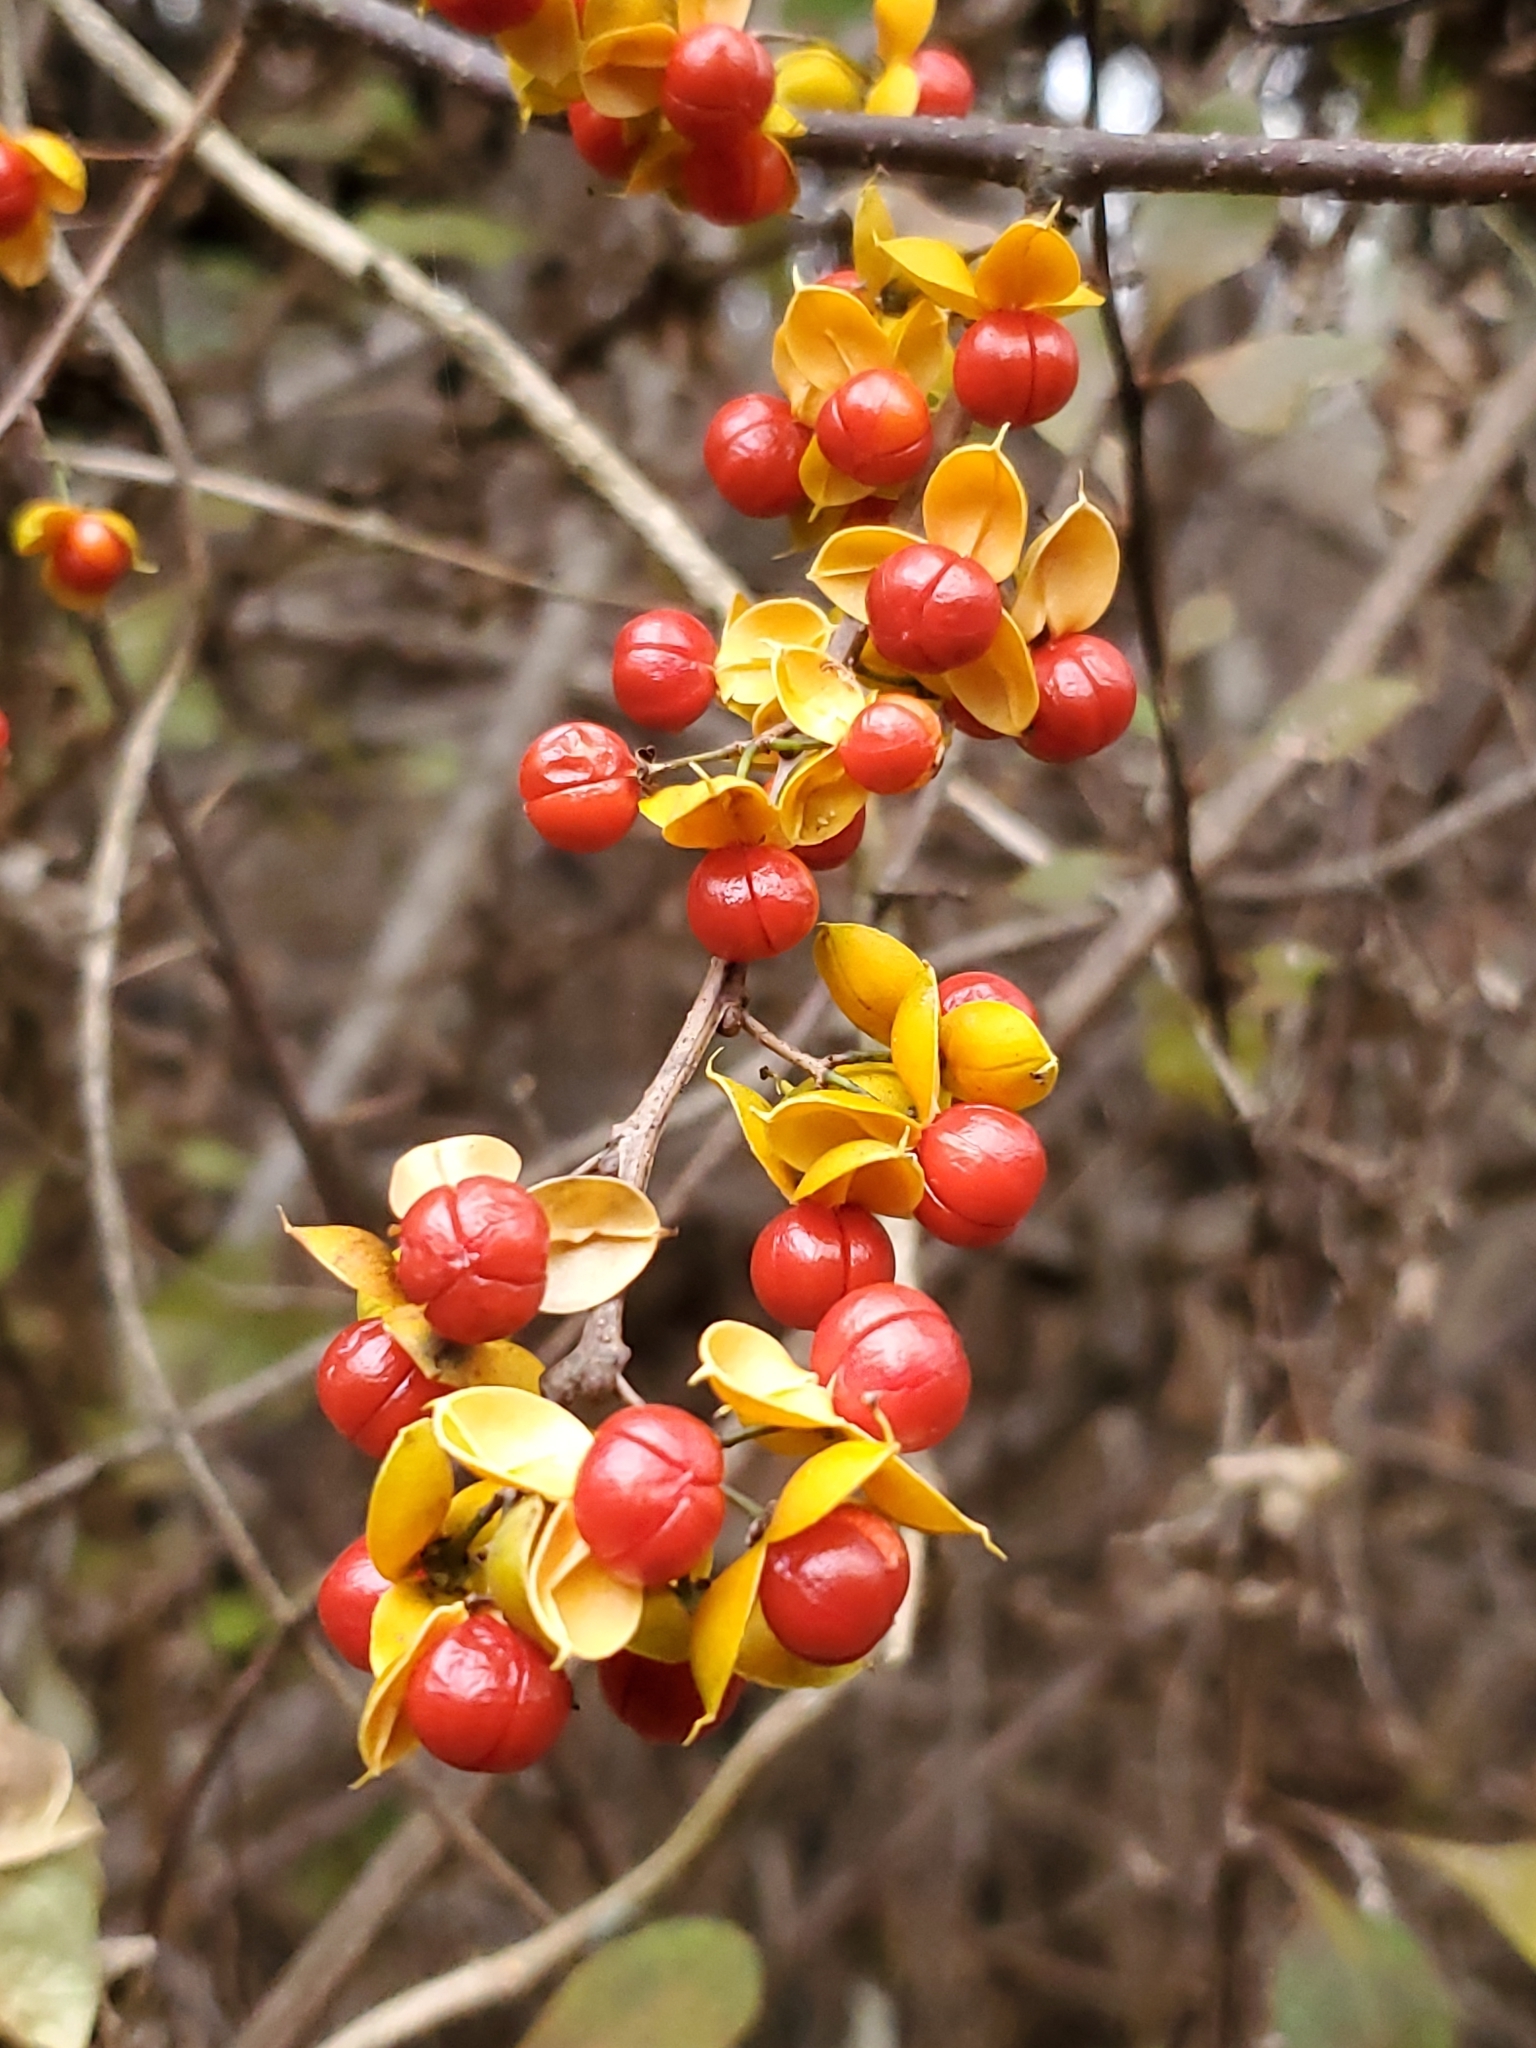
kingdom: Plantae
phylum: Tracheophyta
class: Magnoliopsida
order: Celastrales
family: Celastraceae
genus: Celastrus
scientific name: Celastrus orbiculatus
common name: Oriental bittersweet
